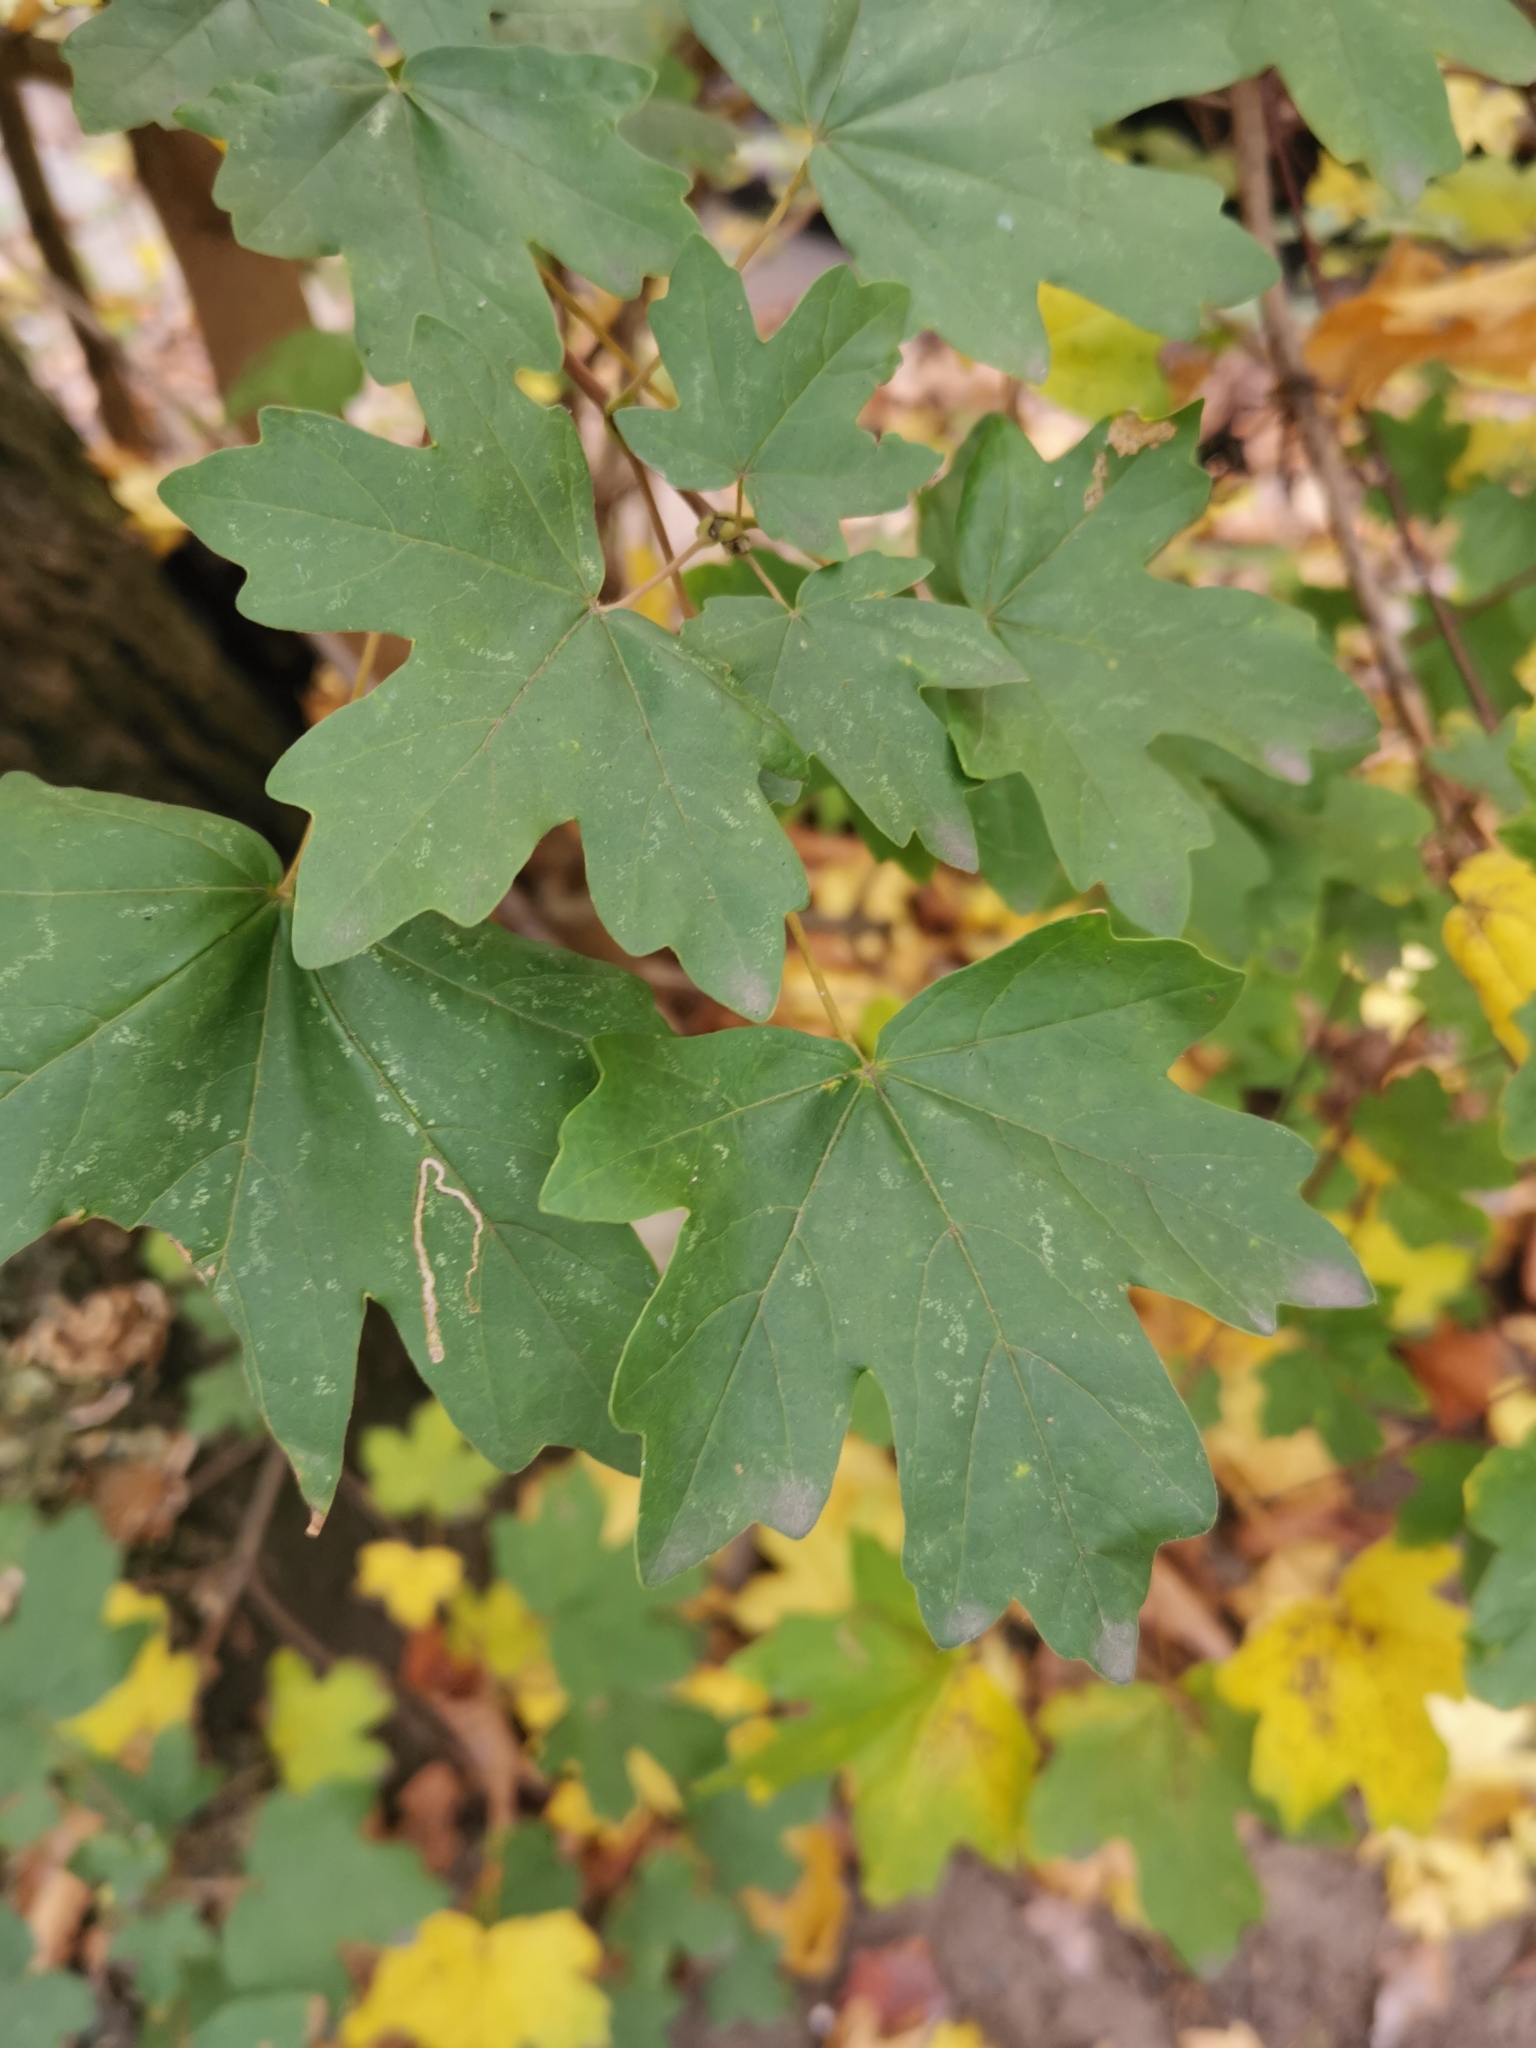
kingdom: Plantae
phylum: Tracheophyta
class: Magnoliopsida
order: Sapindales
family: Sapindaceae
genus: Acer
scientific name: Acer campestre
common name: Field maple
